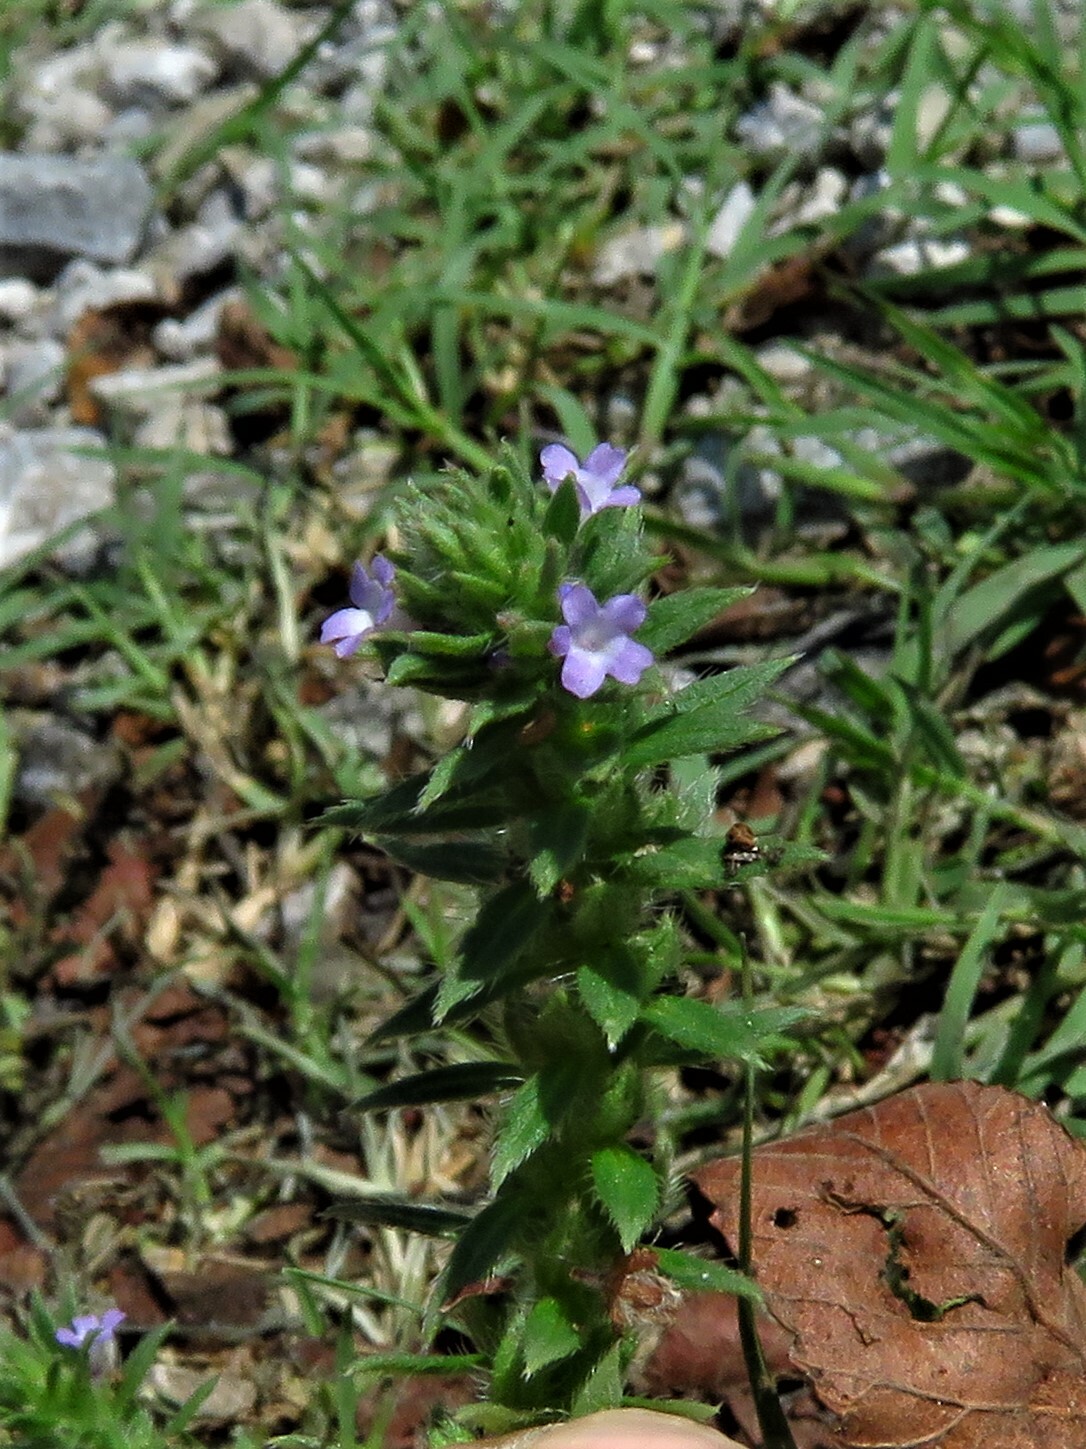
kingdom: Plantae
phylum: Tracheophyta
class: Magnoliopsida
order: Lamiales
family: Verbenaceae
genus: Verbena
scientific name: Verbena bracteata
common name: Bracted vervain
